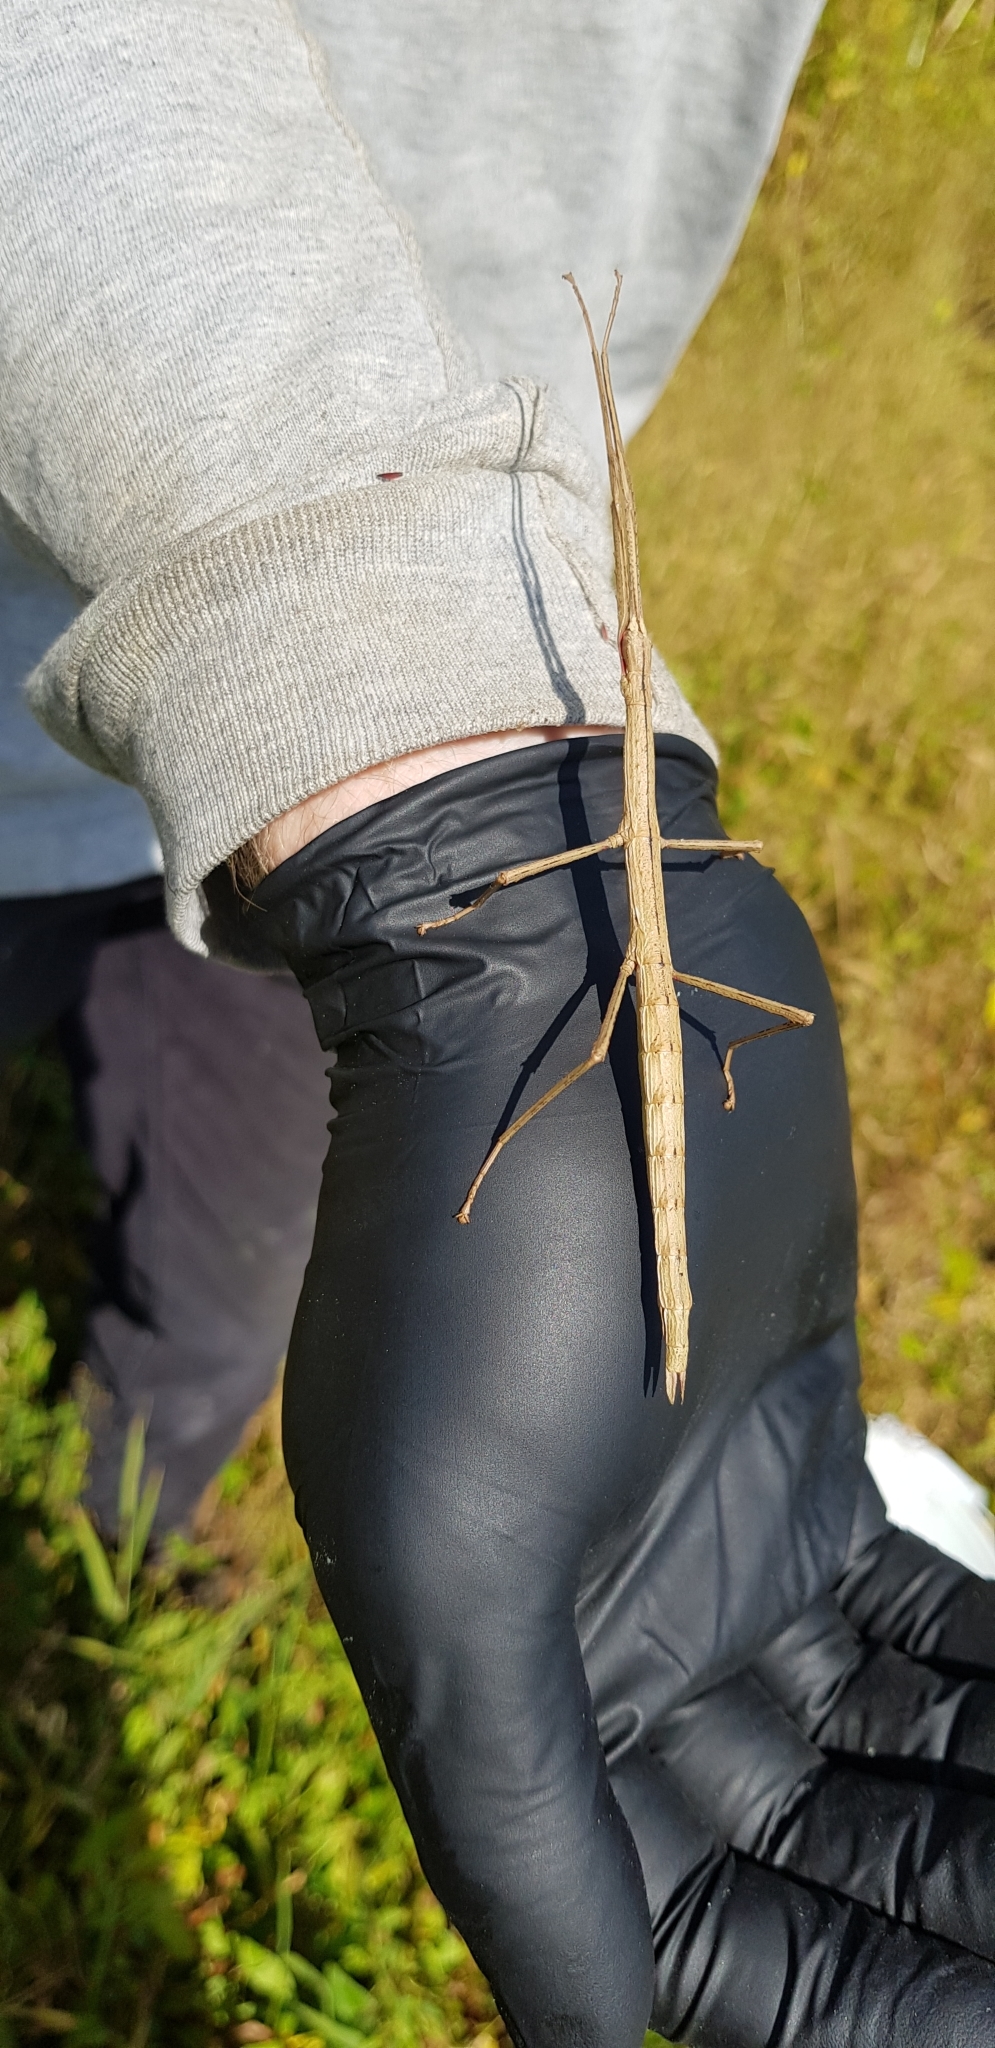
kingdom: Animalia
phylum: Arthropoda
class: Insecta
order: Phasmida
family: Phasmatidae
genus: Clitarchus
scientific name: Clitarchus hookeri
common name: Smooth stick insect
